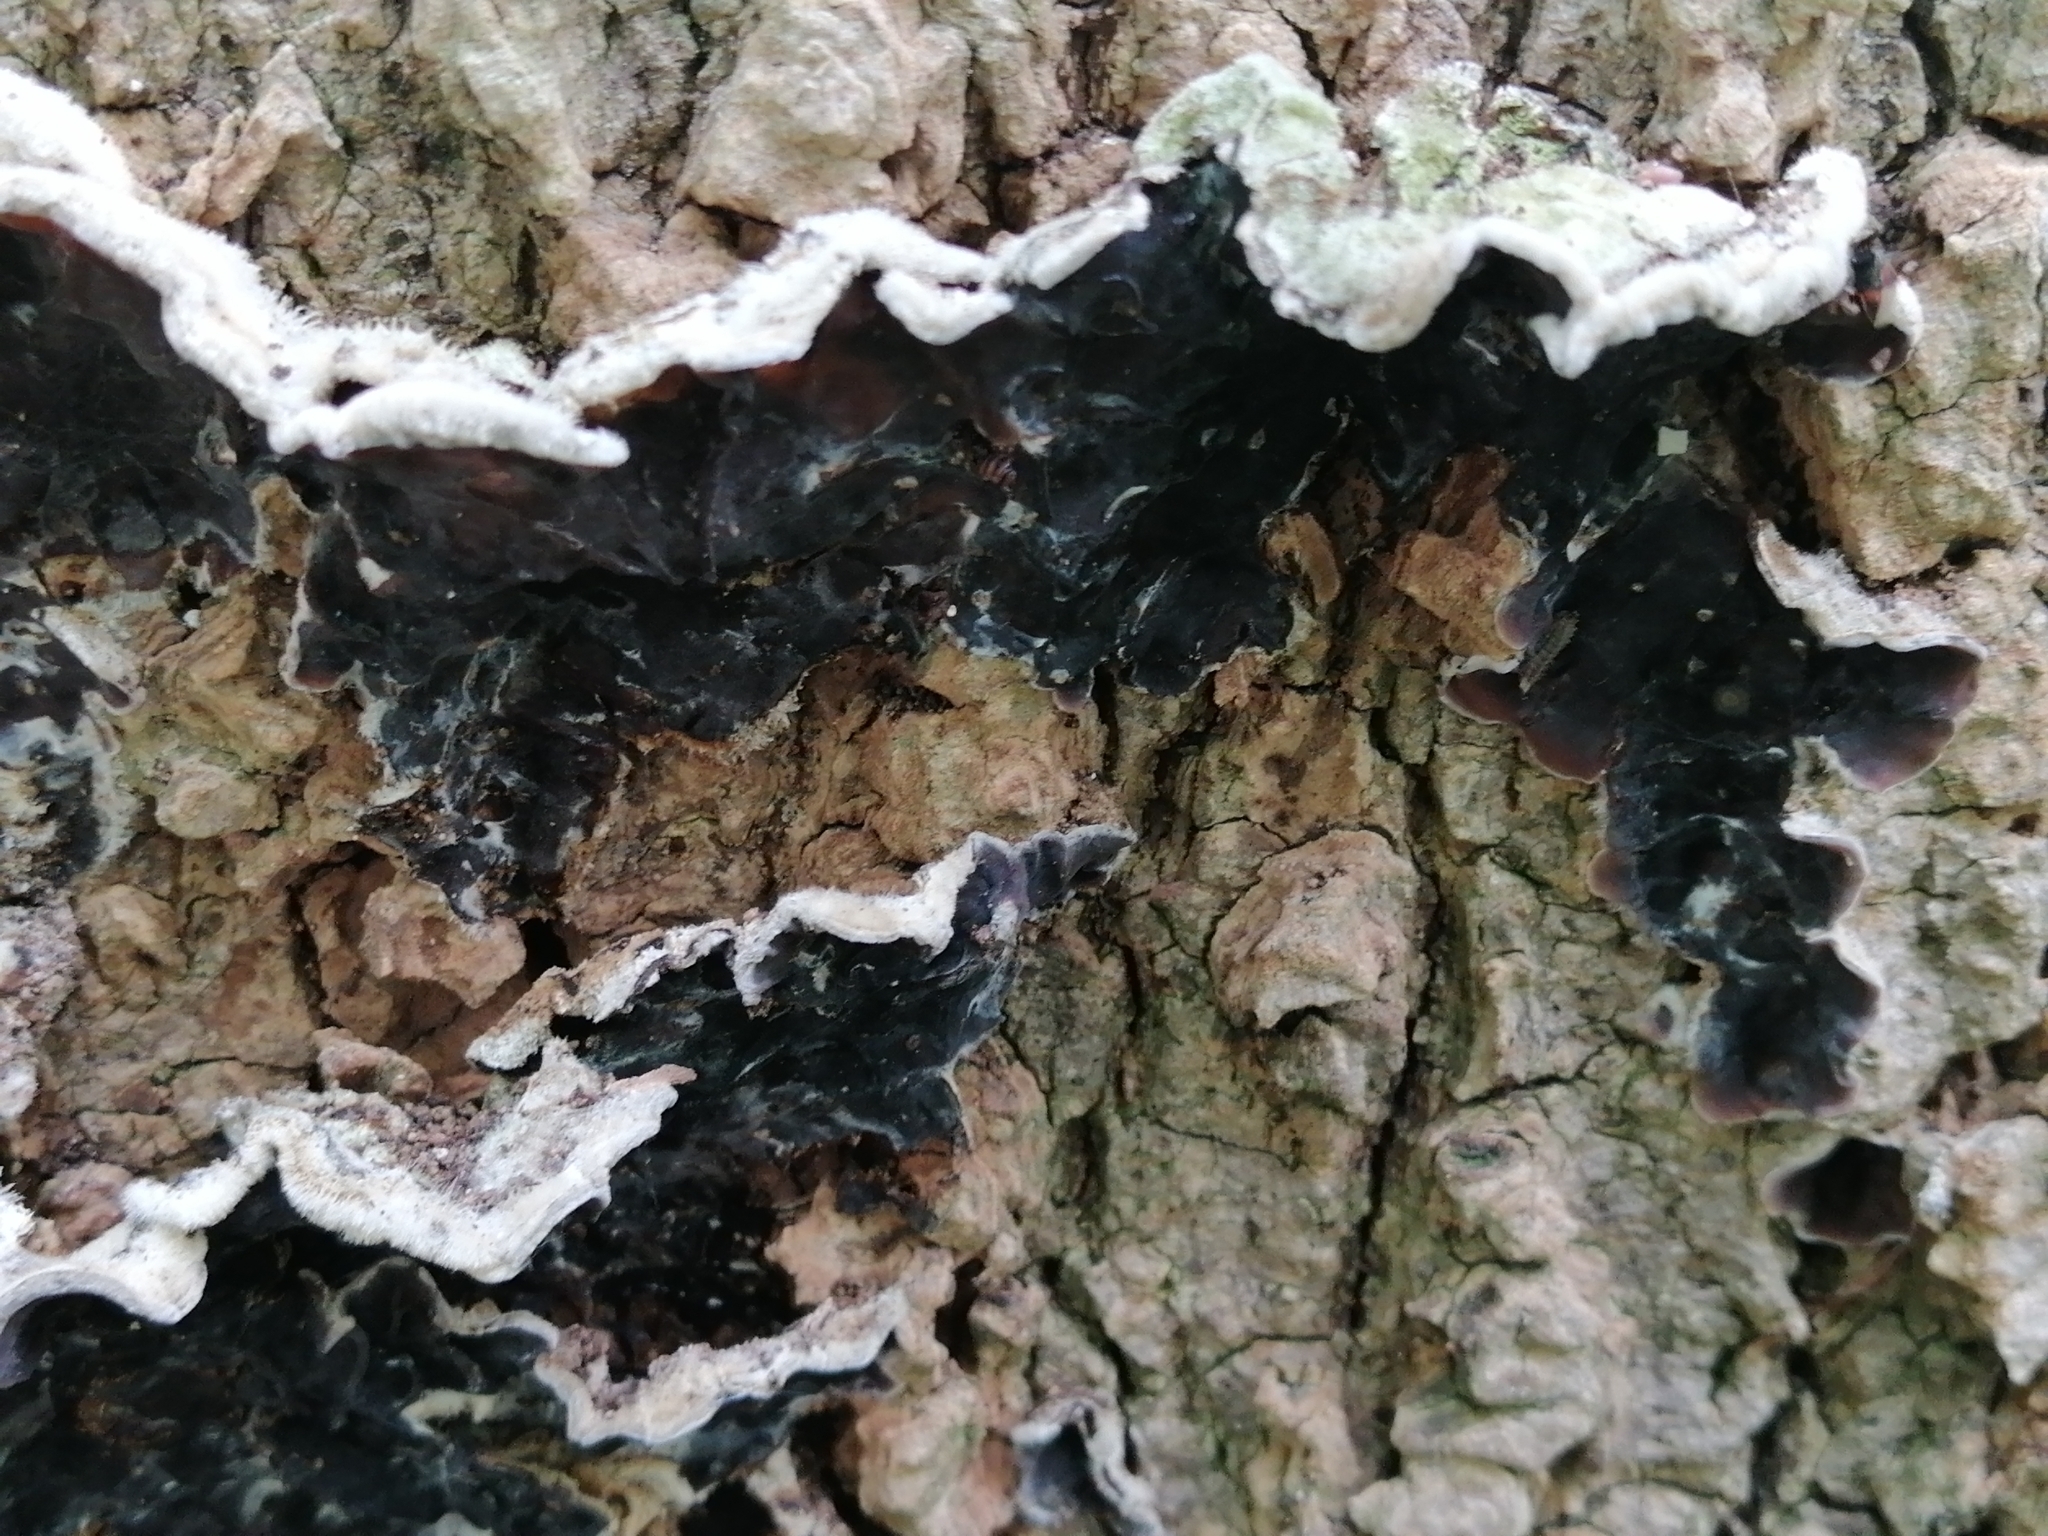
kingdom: Fungi
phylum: Basidiomycota
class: Agaricomycetes
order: Auriculariales
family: Auriculariaceae
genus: Auricularia
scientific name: Auricularia mesenterica
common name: Tripe fungus
